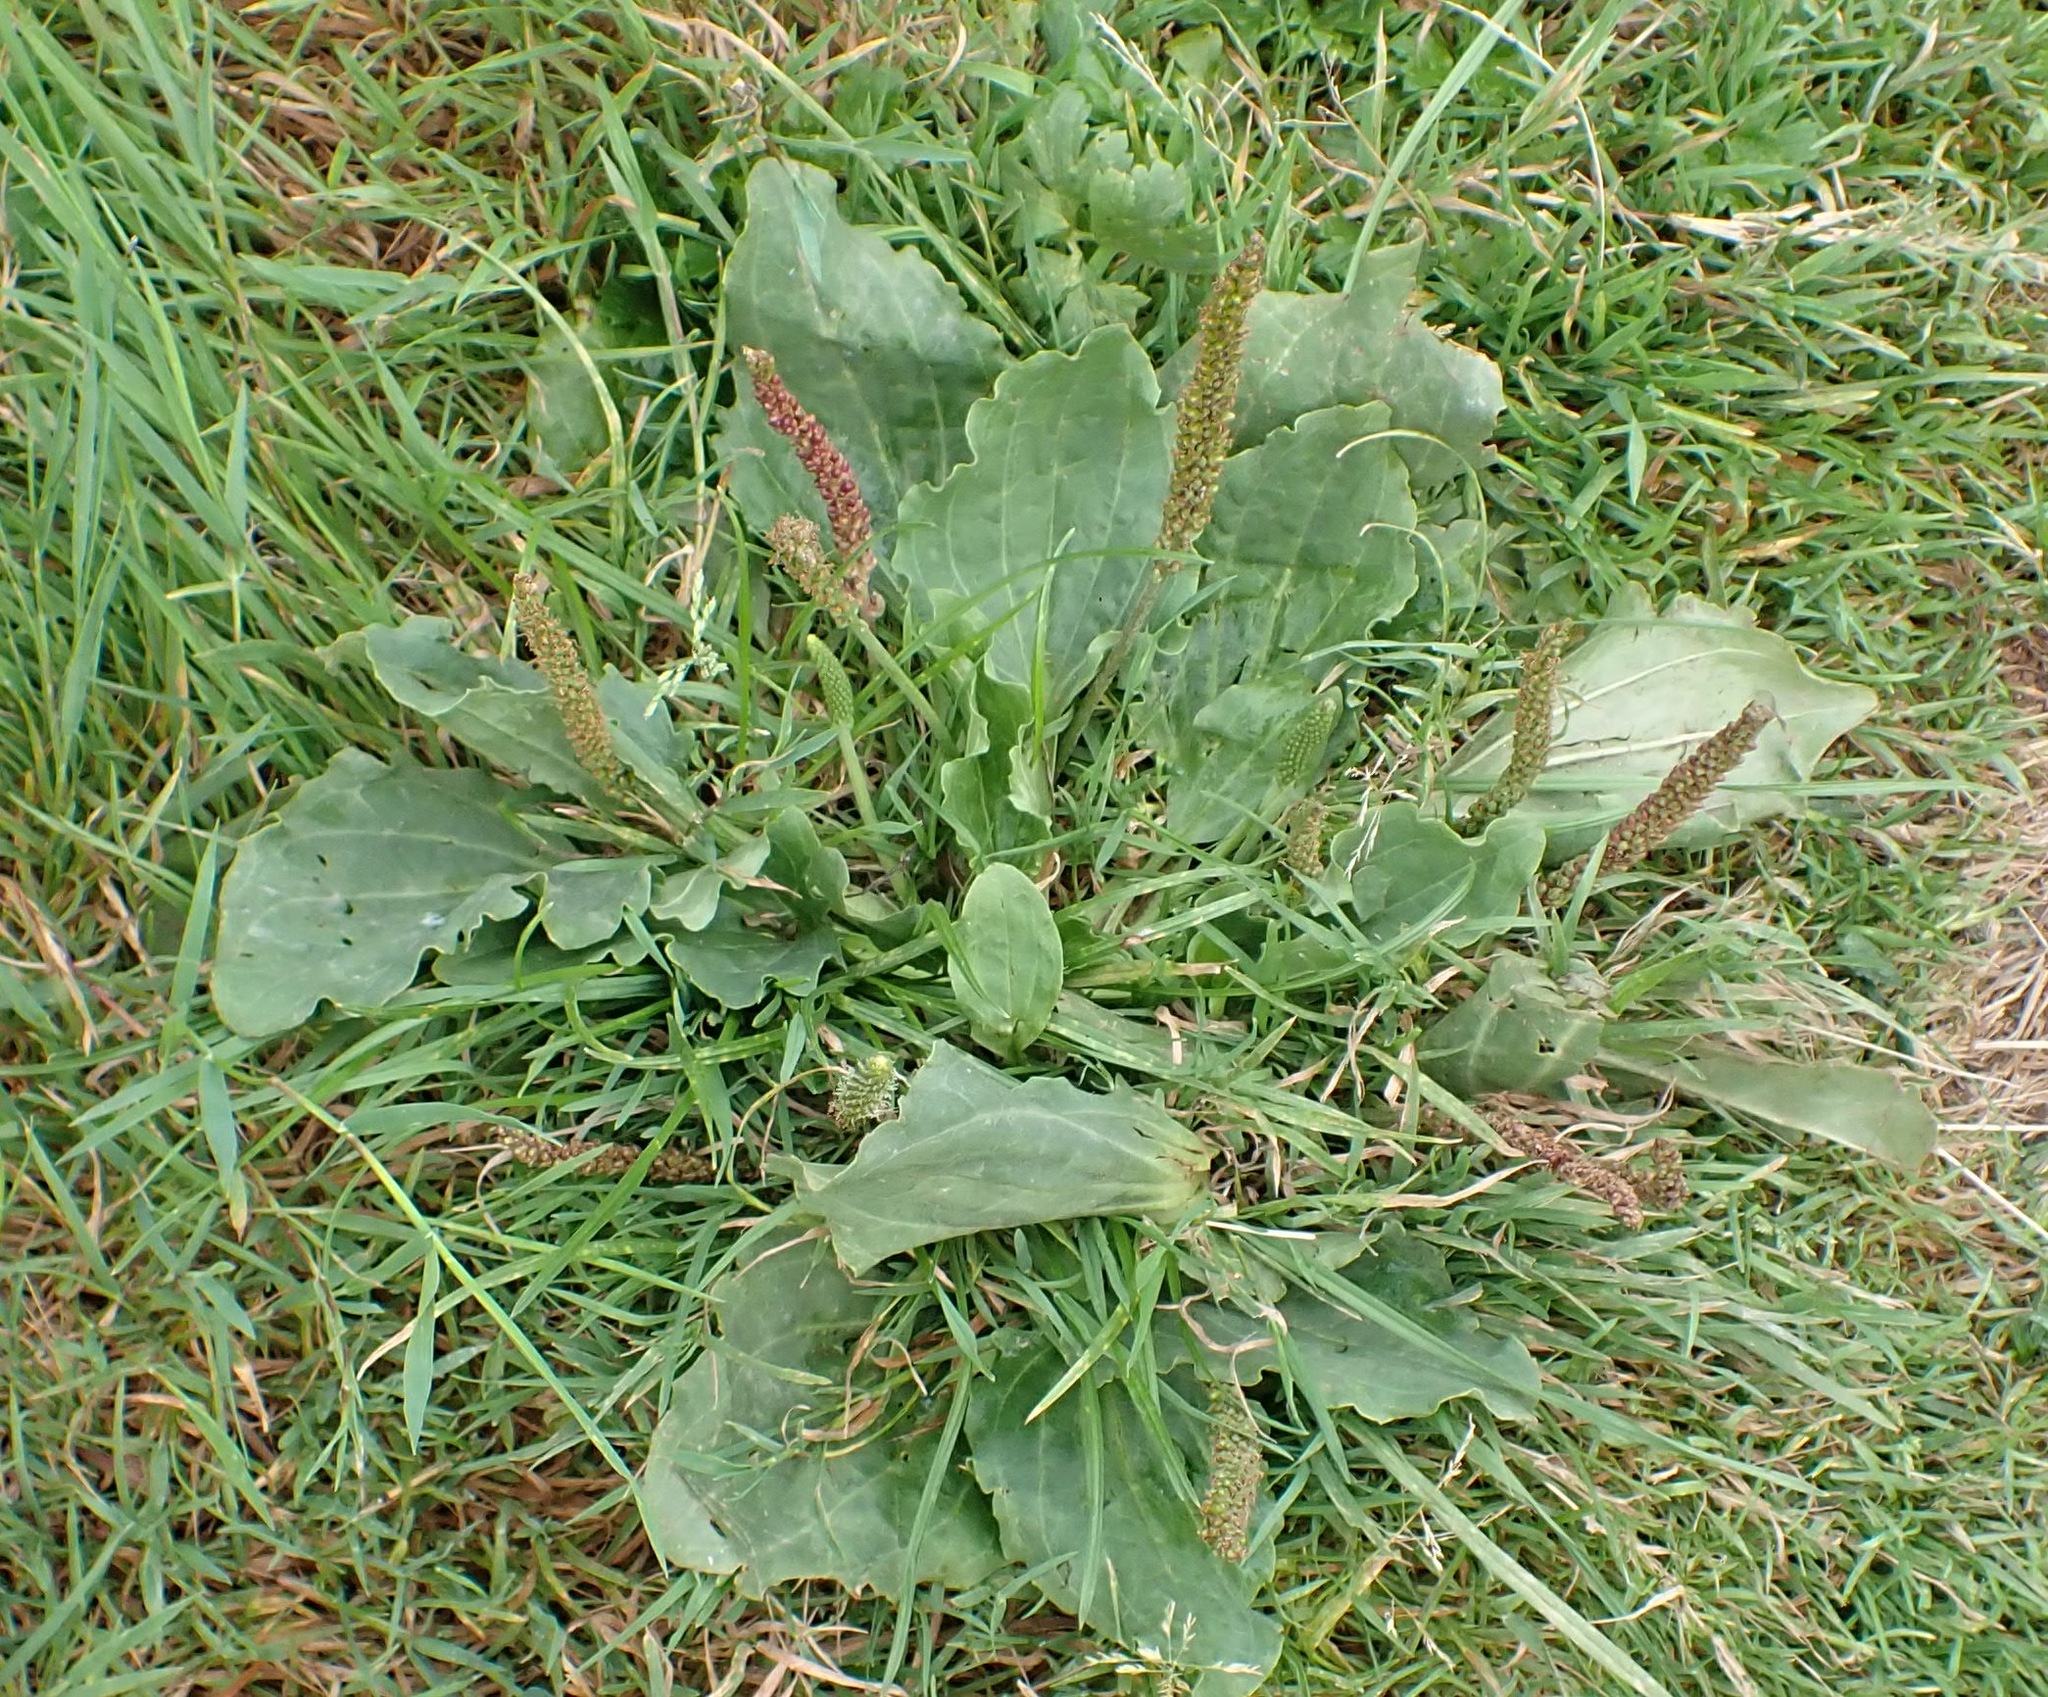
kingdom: Plantae
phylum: Tracheophyta
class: Magnoliopsida
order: Lamiales
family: Plantaginaceae
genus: Plantago
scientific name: Plantago major
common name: Common plantain
